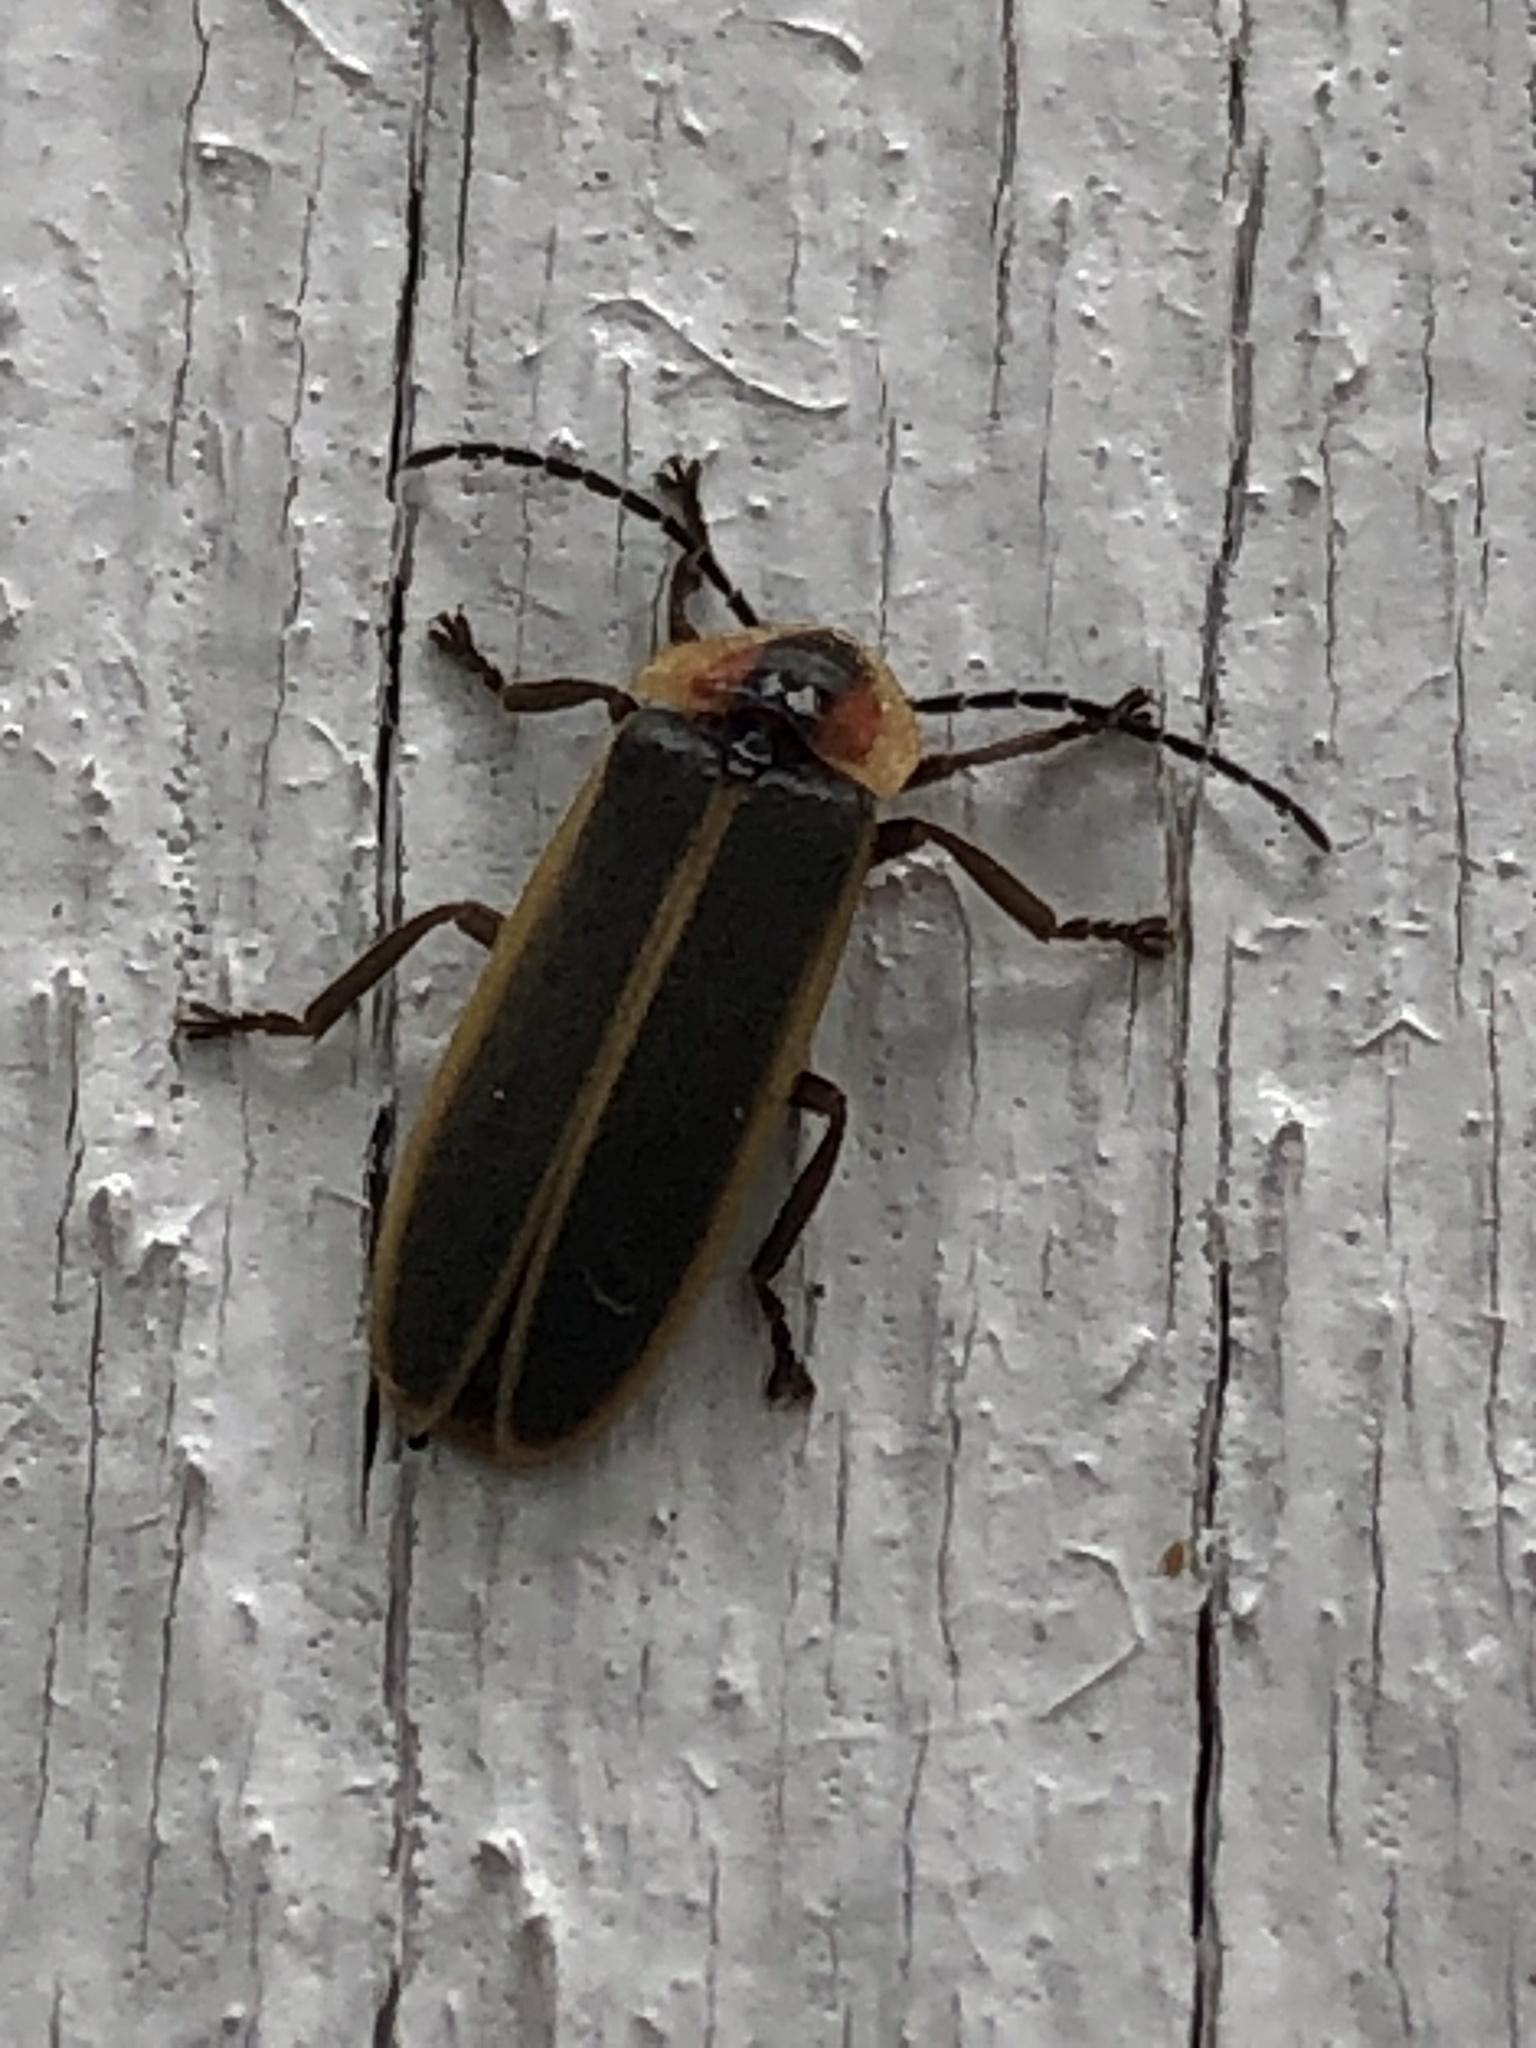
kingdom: Animalia
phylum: Arthropoda
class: Insecta
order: Coleoptera
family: Lampyridae
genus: Photinus
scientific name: Photinus pyralis
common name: Big dipper firefly
